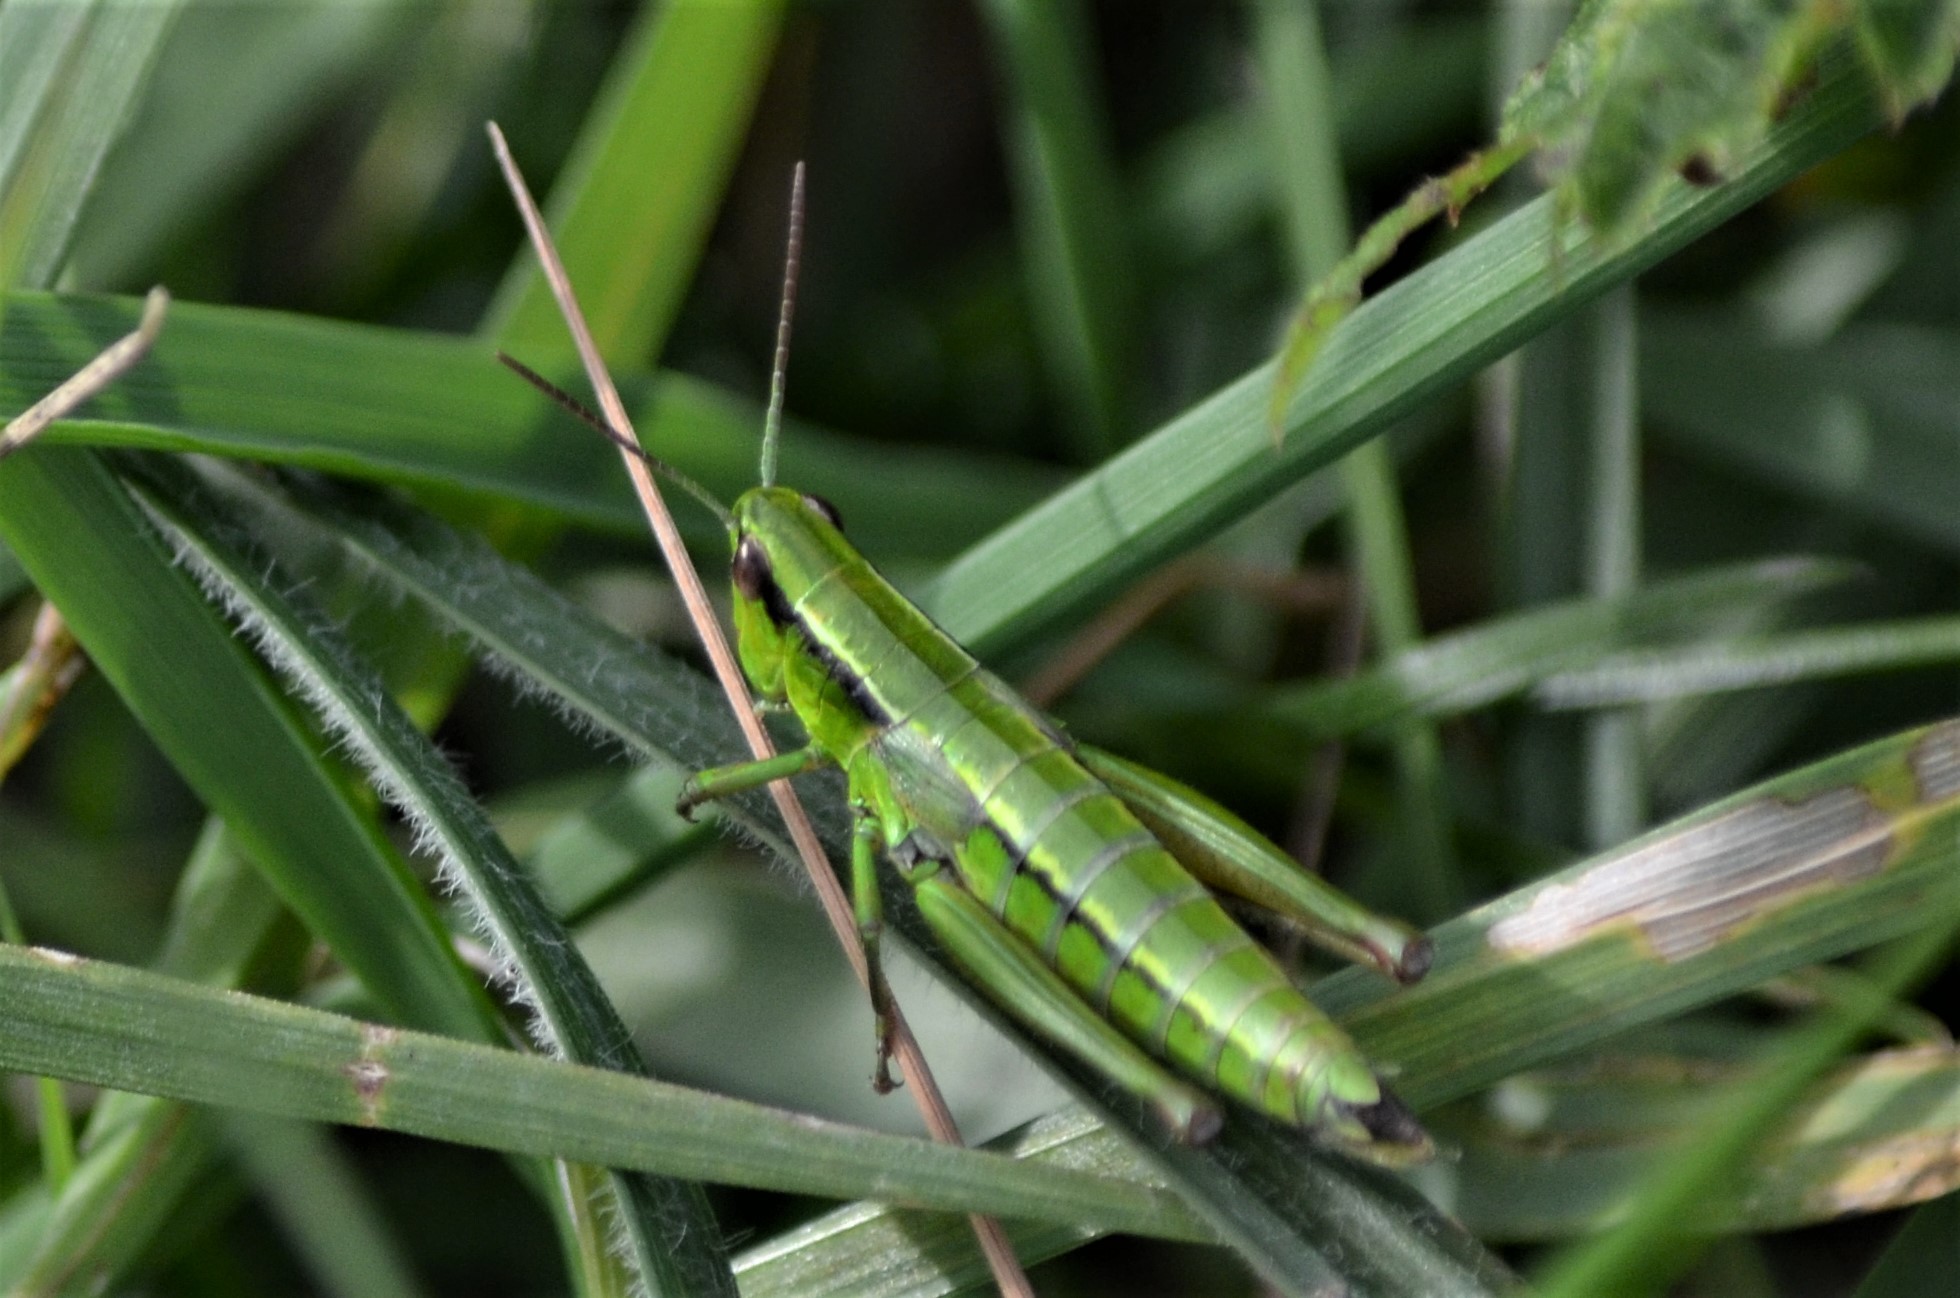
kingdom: Animalia
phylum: Arthropoda
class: Insecta
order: Orthoptera
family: Acrididae
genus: Euthystira
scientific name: Euthystira brachyptera
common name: Small gold grasshopper
